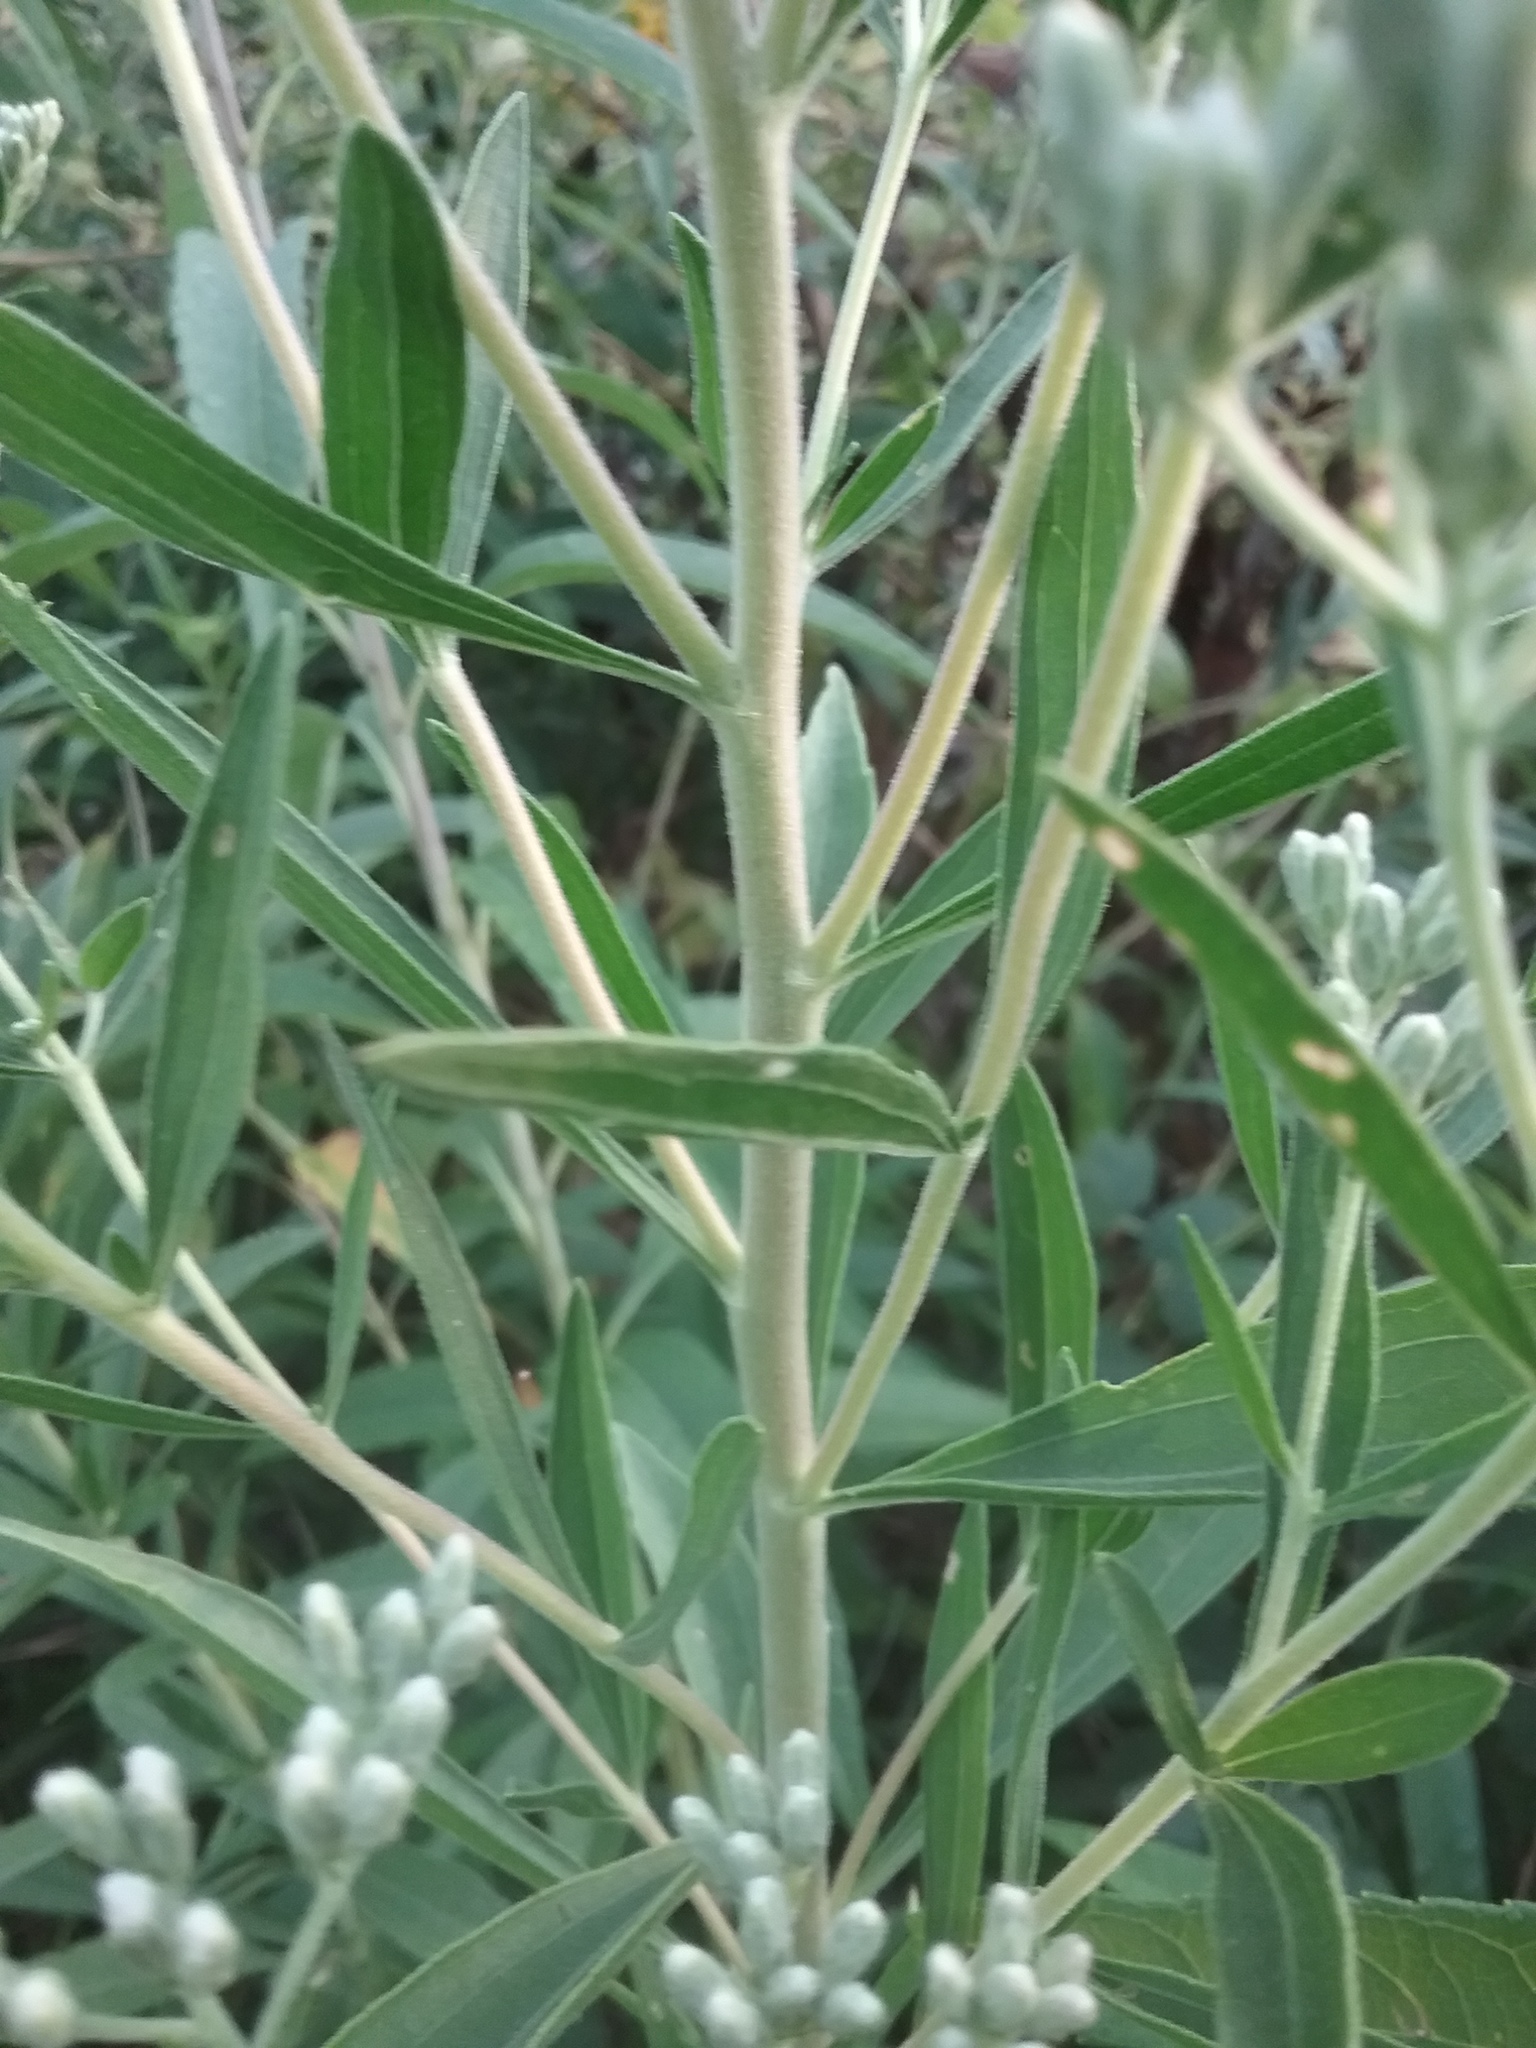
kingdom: Plantae
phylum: Tracheophyta
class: Magnoliopsida
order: Asterales
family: Asteraceae
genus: Eupatorium
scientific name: Eupatorium altissimum
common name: Tall thoroughwort
